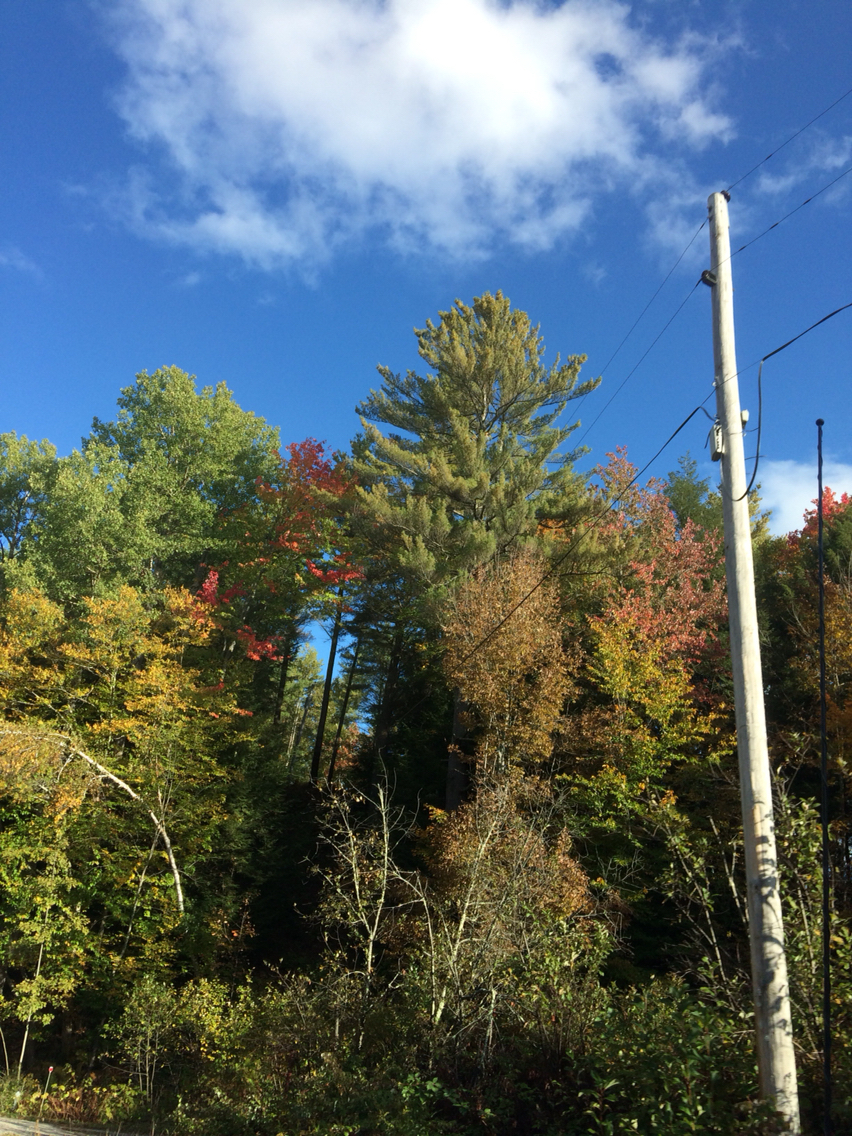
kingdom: Plantae
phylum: Tracheophyta
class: Pinopsida
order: Pinales
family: Pinaceae
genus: Pinus
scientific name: Pinus strobus
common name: Weymouth pine
